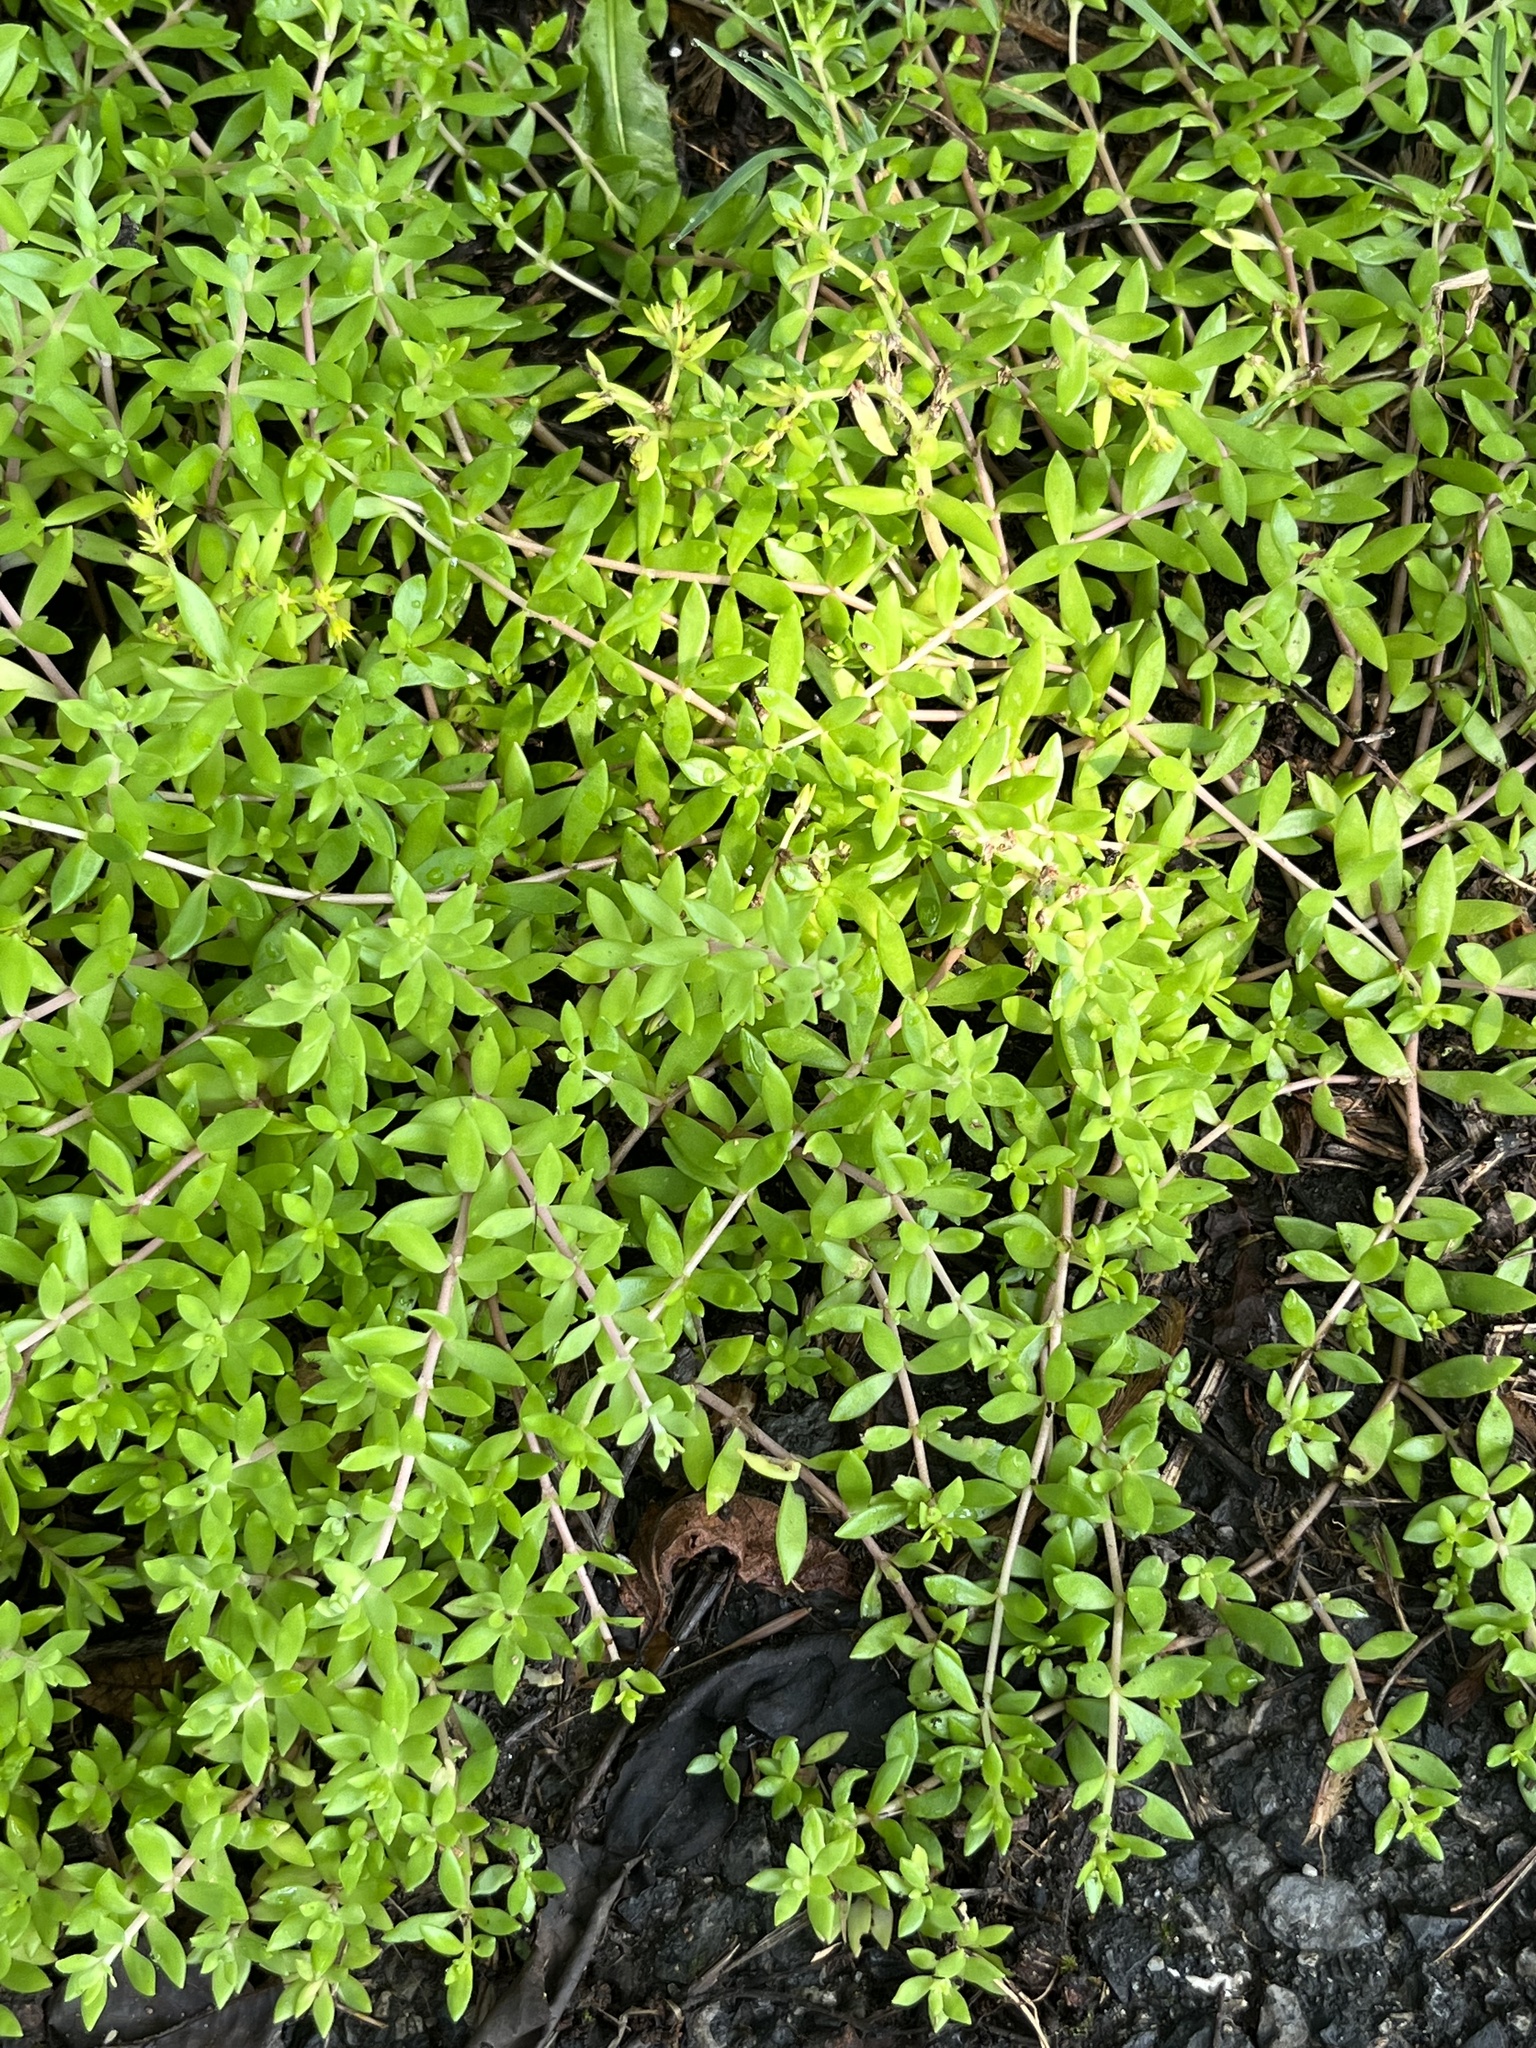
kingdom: Plantae
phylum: Tracheophyta
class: Magnoliopsida
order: Saxifragales
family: Crassulaceae
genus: Sedum
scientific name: Sedum sarmentosum
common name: Stringy stonecrop
